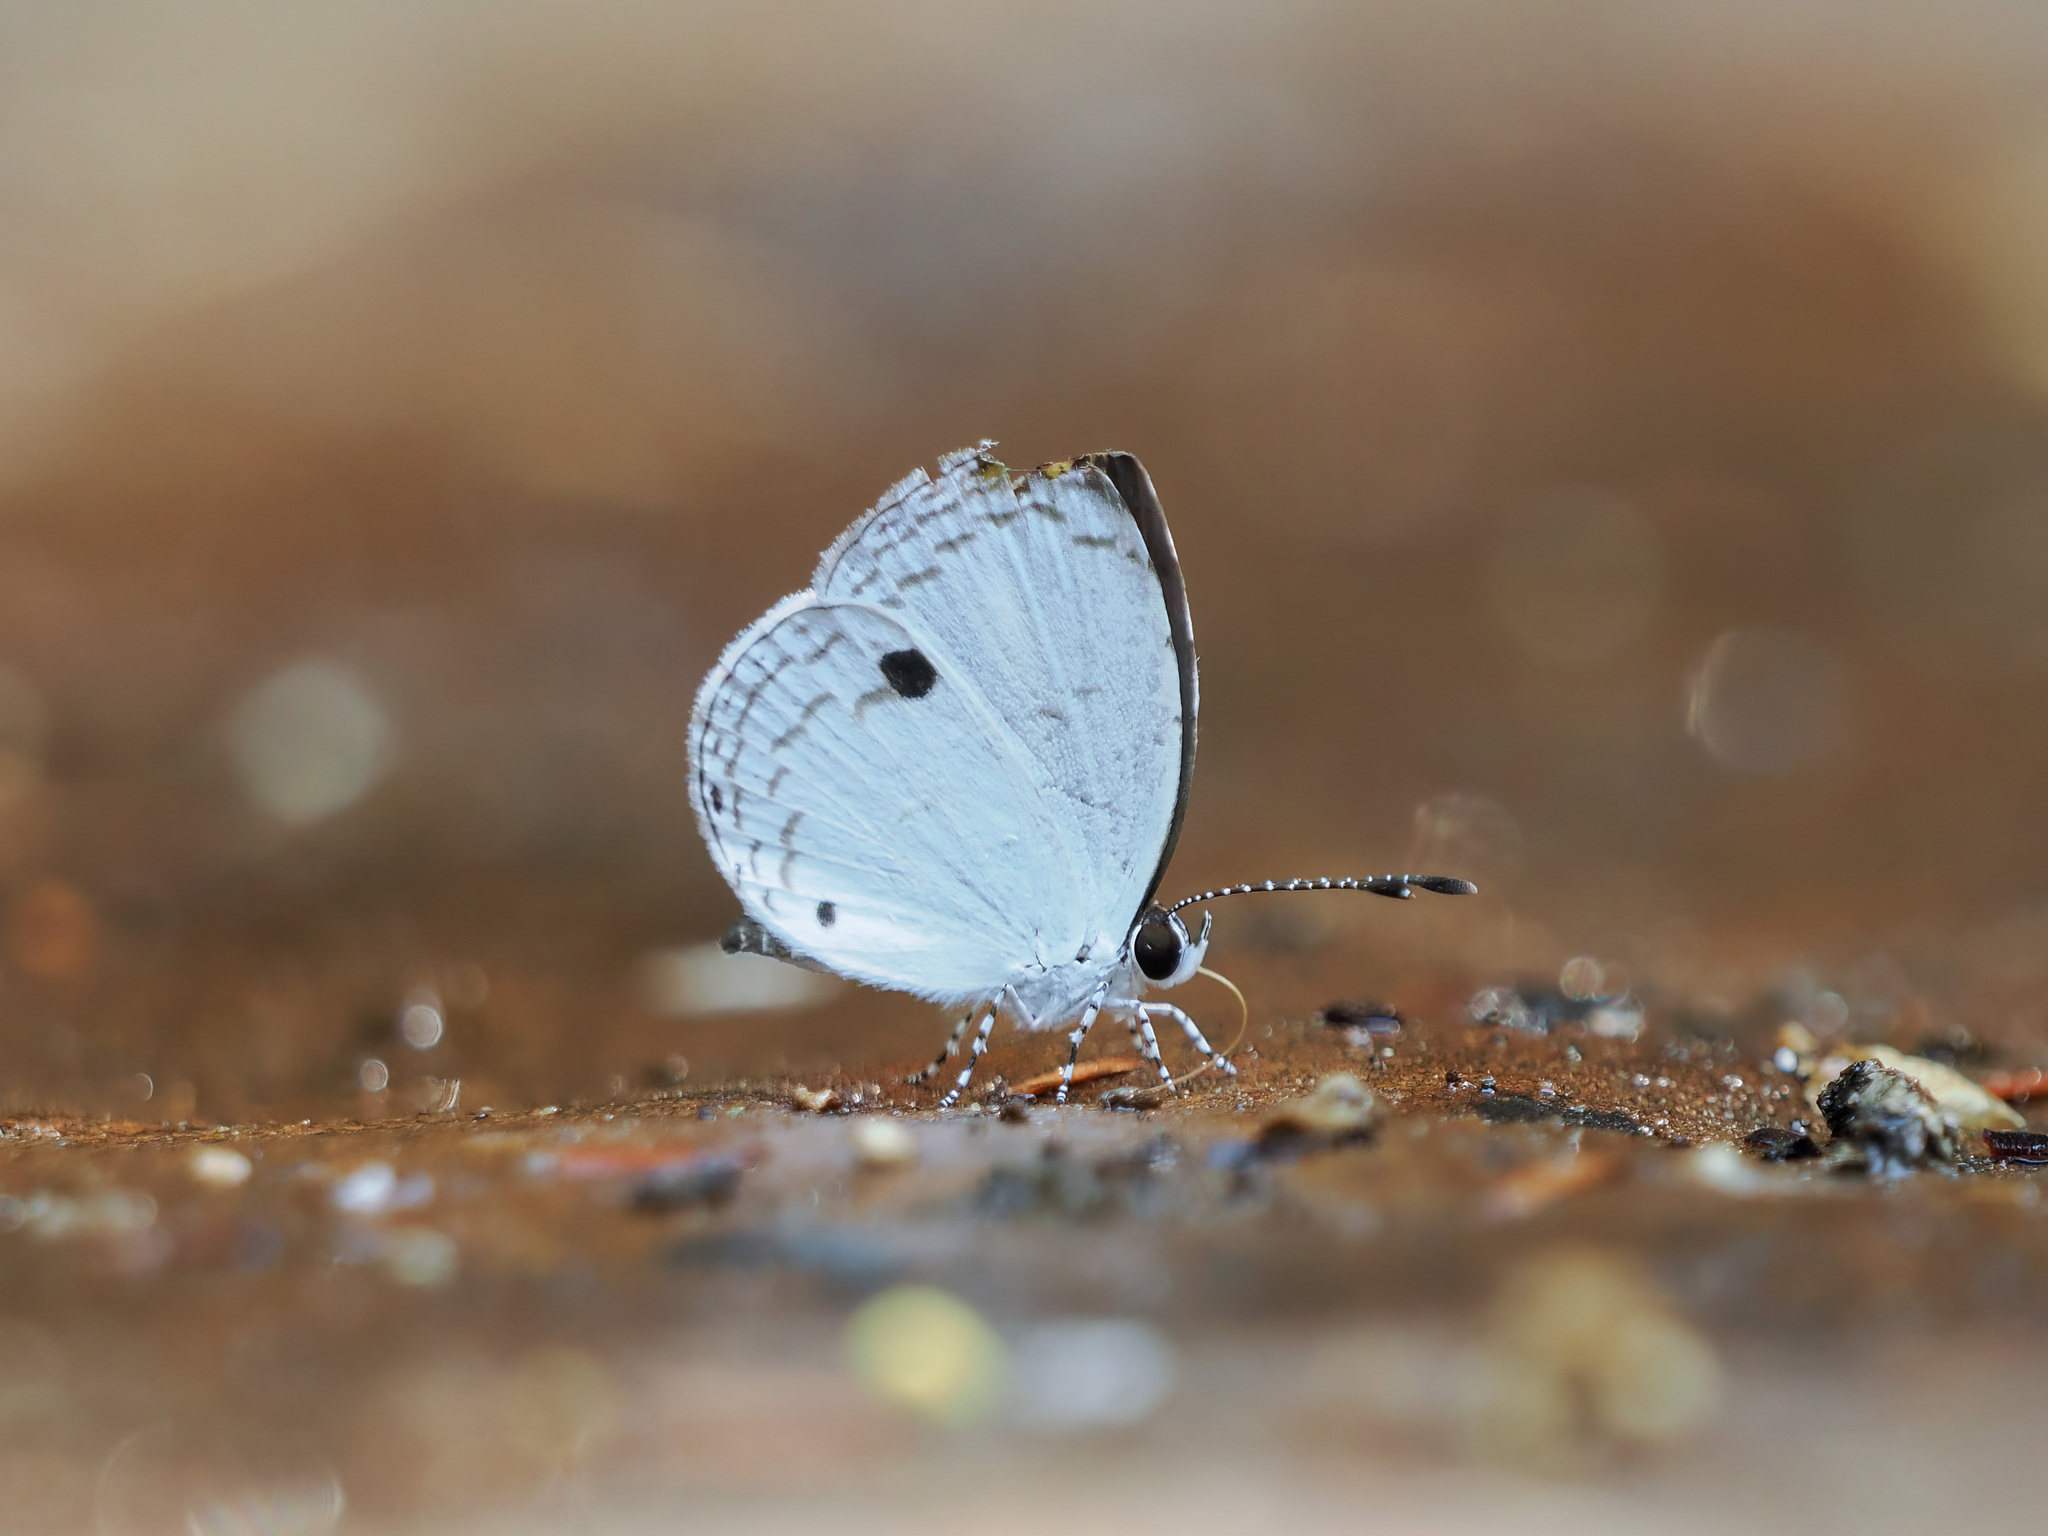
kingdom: Animalia
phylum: Arthropoda
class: Insecta
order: Lepidoptera
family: Lycaenidae
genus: Neopithecops
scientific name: Neopithecops zalmora
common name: Quaker
